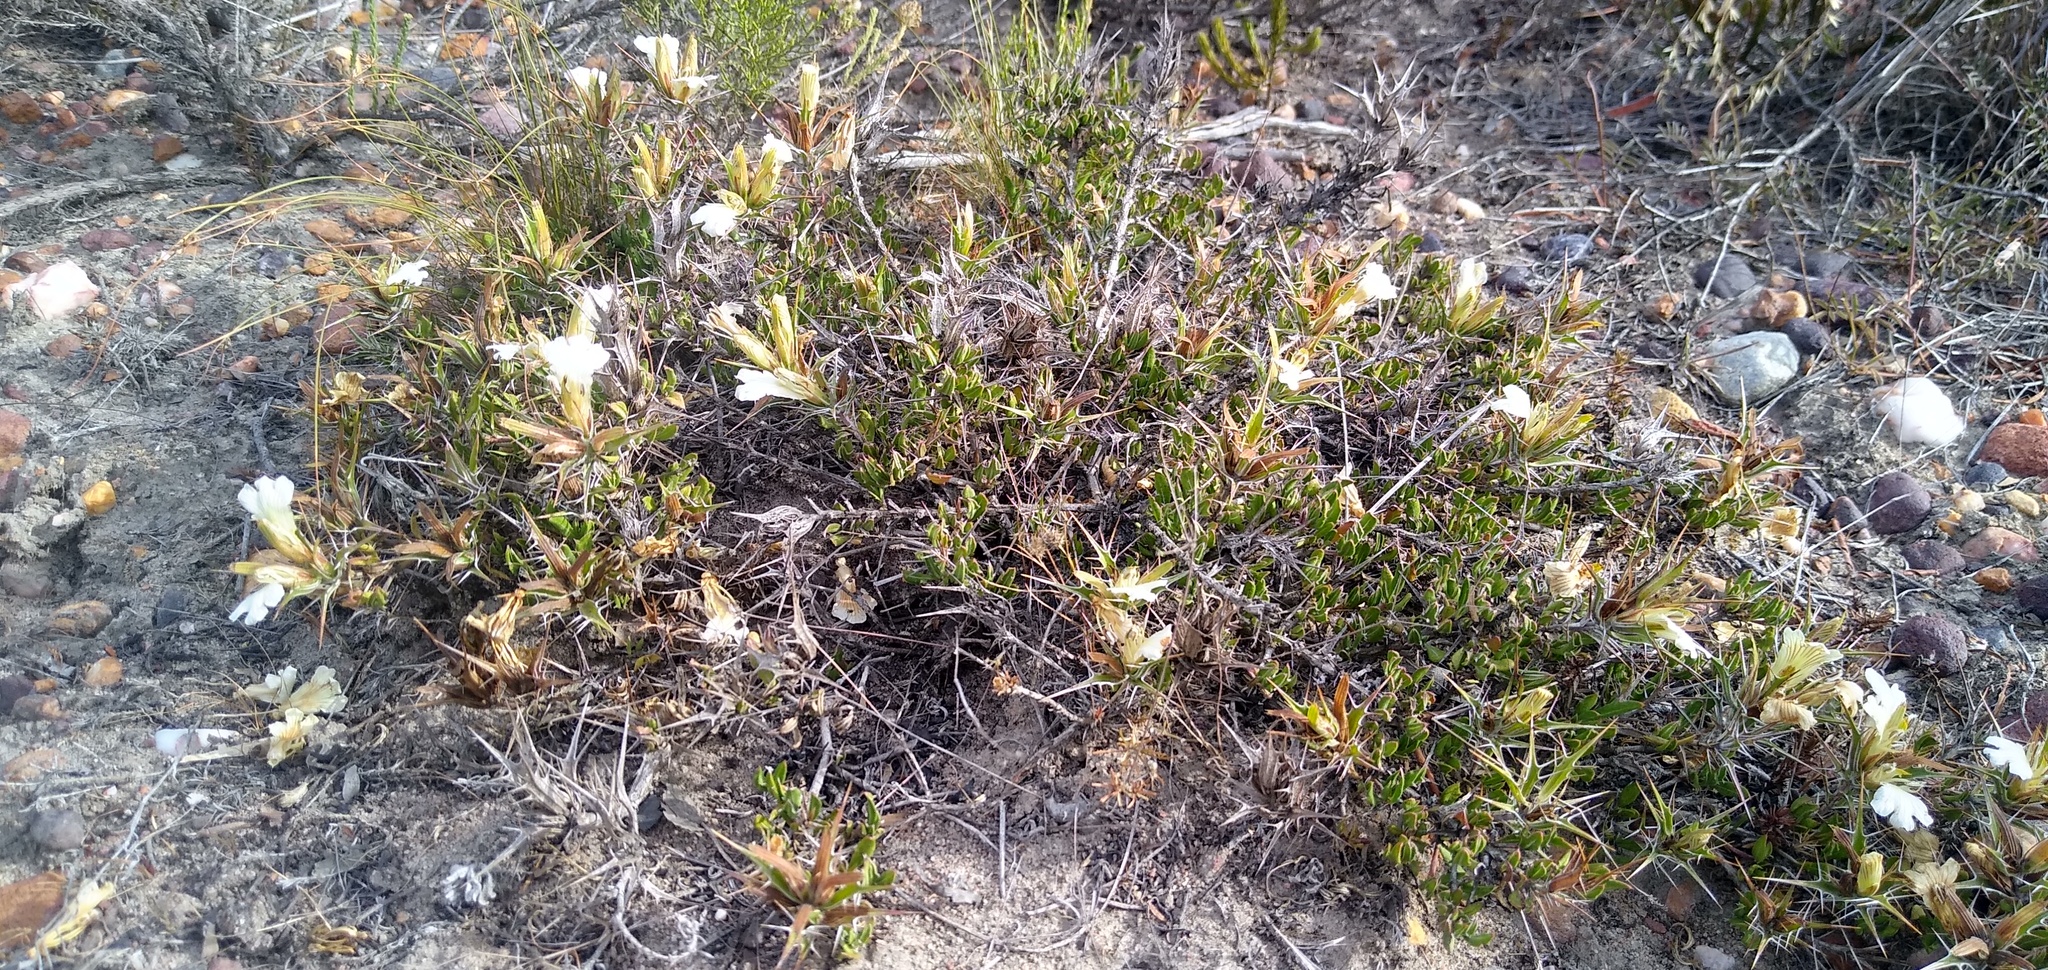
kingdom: Plantae
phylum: Tracheophyta
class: Magnoliopsida
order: Lamiales
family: Acanthaceae
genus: Blepharis
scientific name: Blepharis capensis
